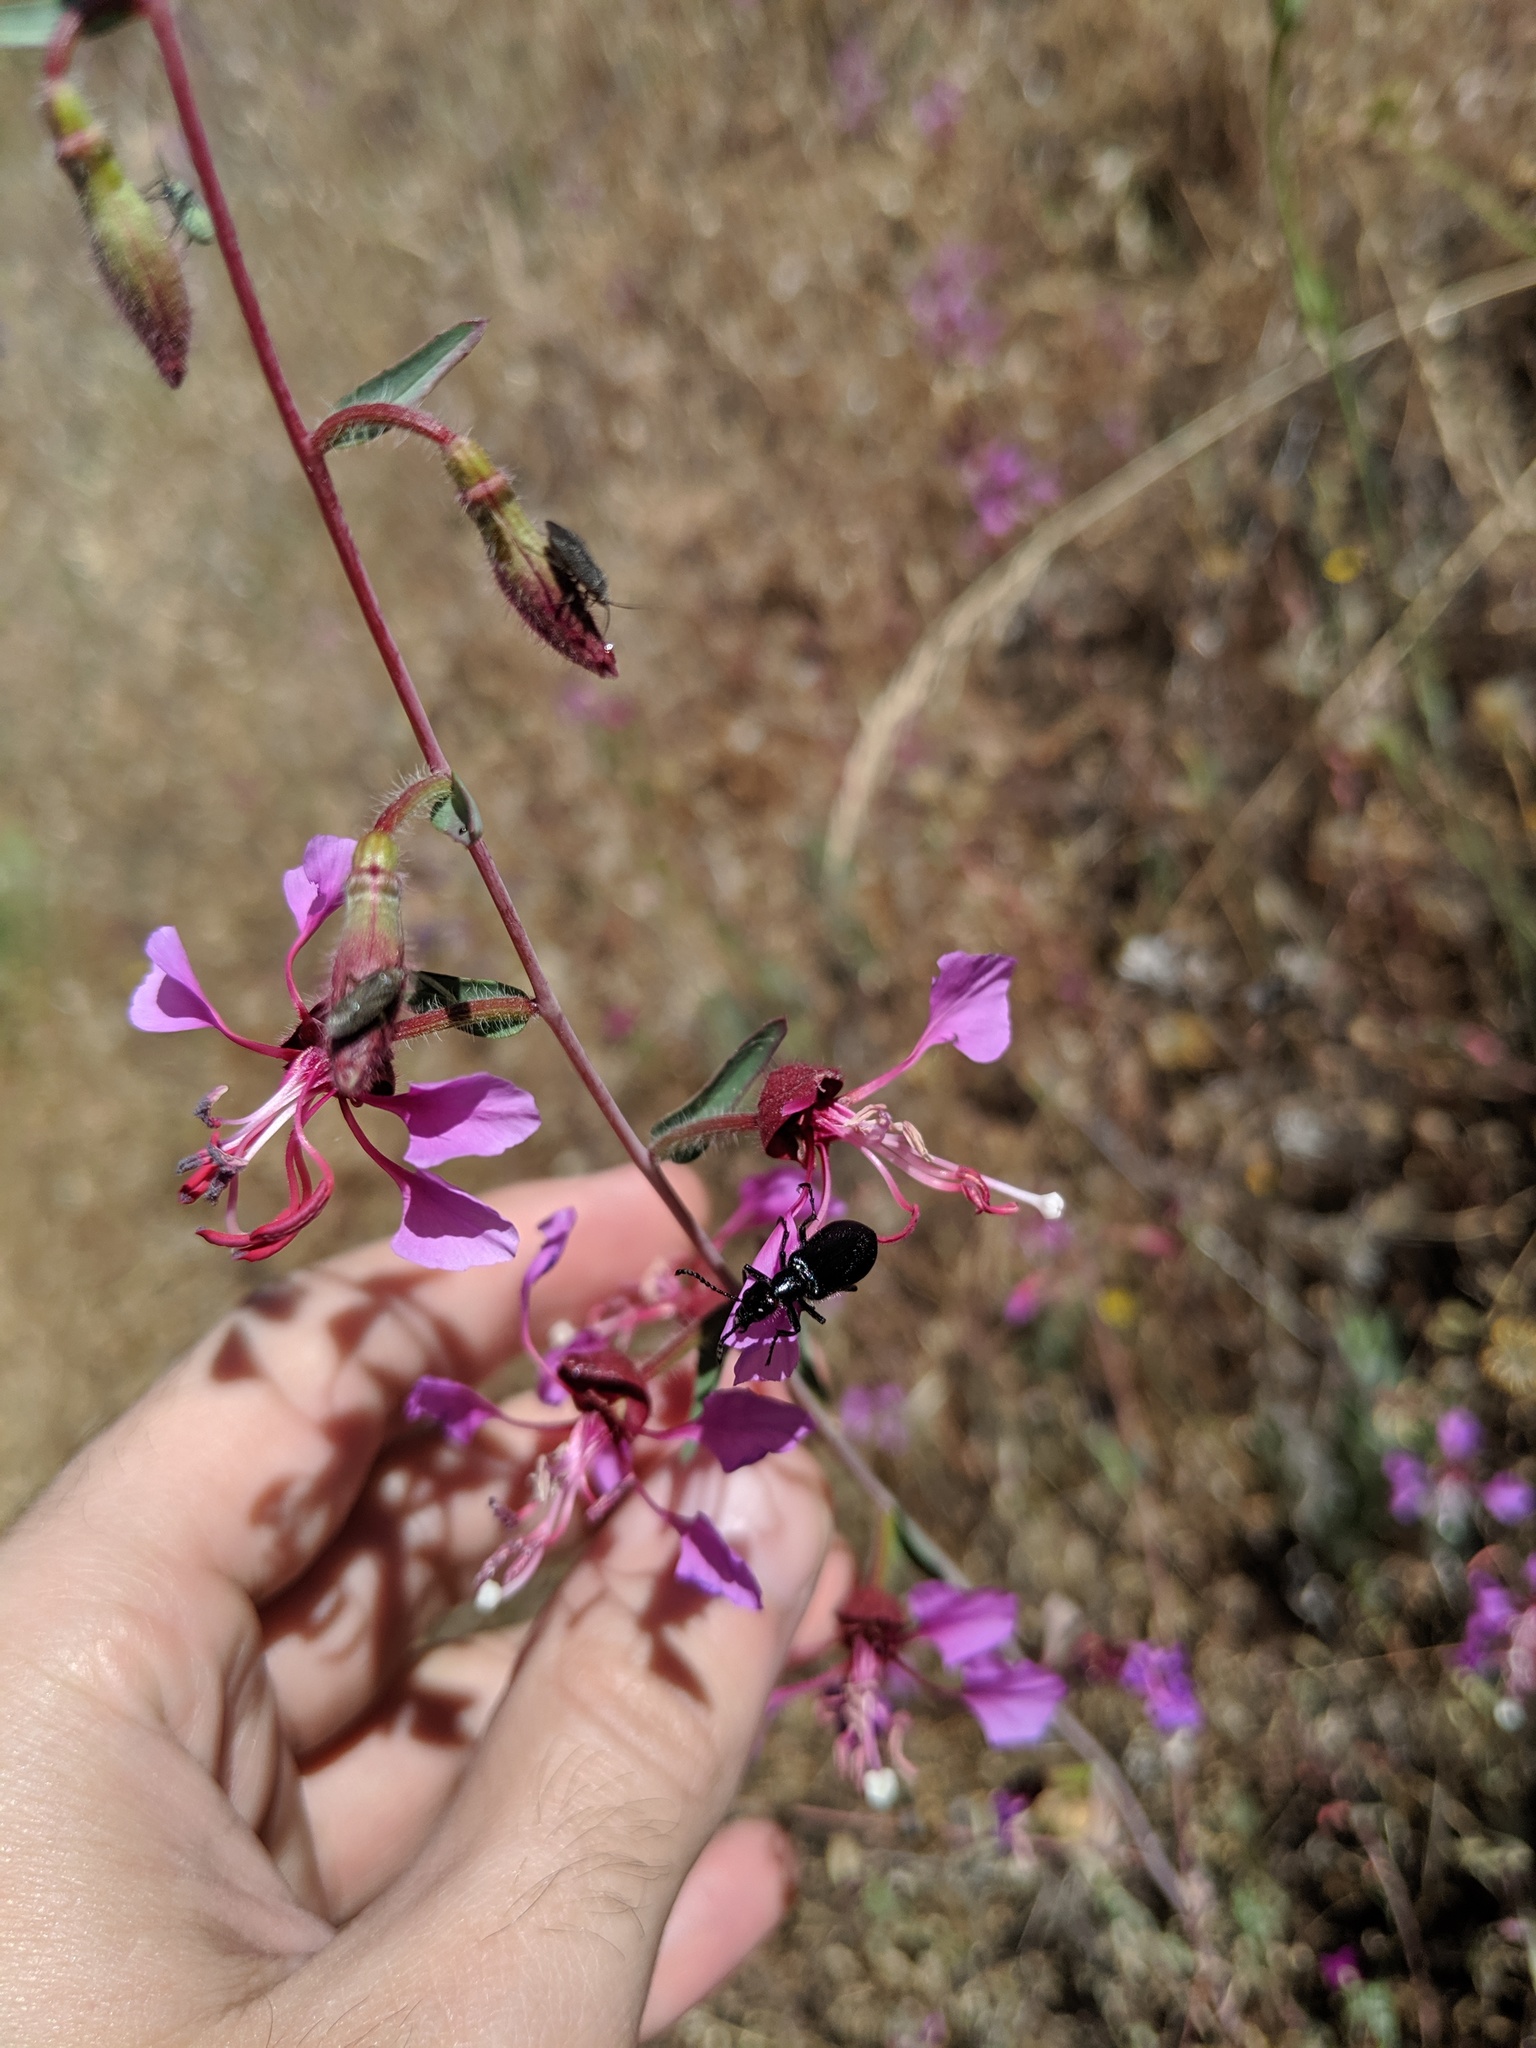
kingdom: Plantae
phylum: Tracheophyta
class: Magnoliopsida
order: Myrtales
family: Onagraceae
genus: Clarkia
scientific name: Clarkia unguiculata
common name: Clarkia
